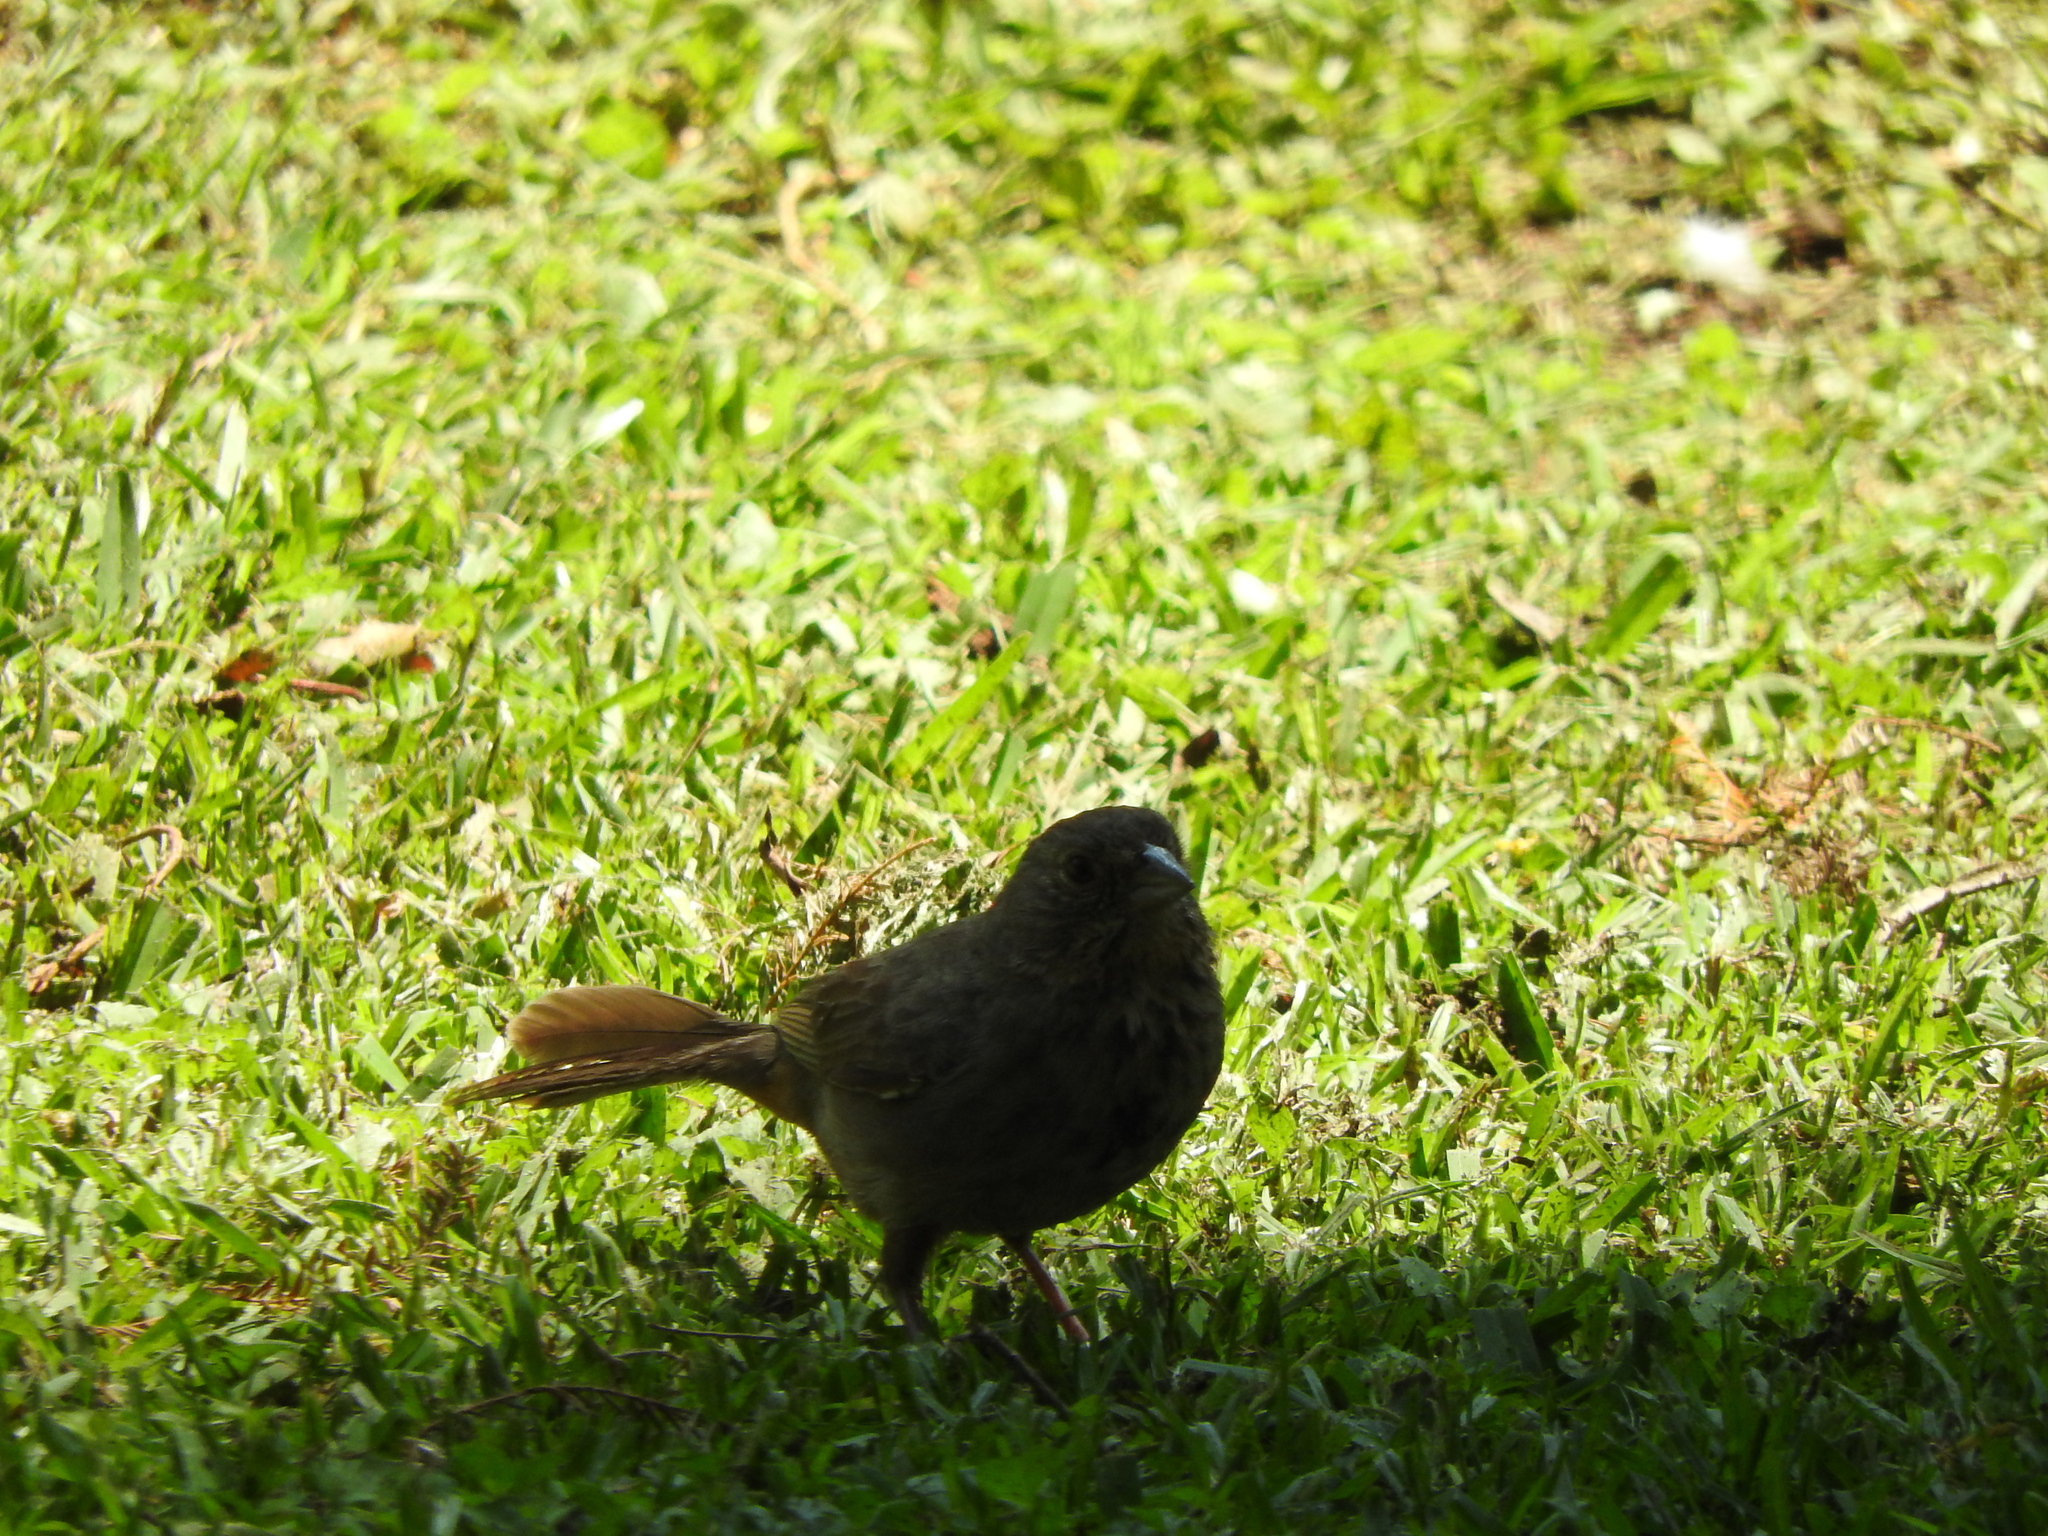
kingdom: Animalia
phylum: Chordata
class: Aves
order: Passeriformes
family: Passerellidae
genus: Melozone
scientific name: Melozone fusca
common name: Canyon towhee
